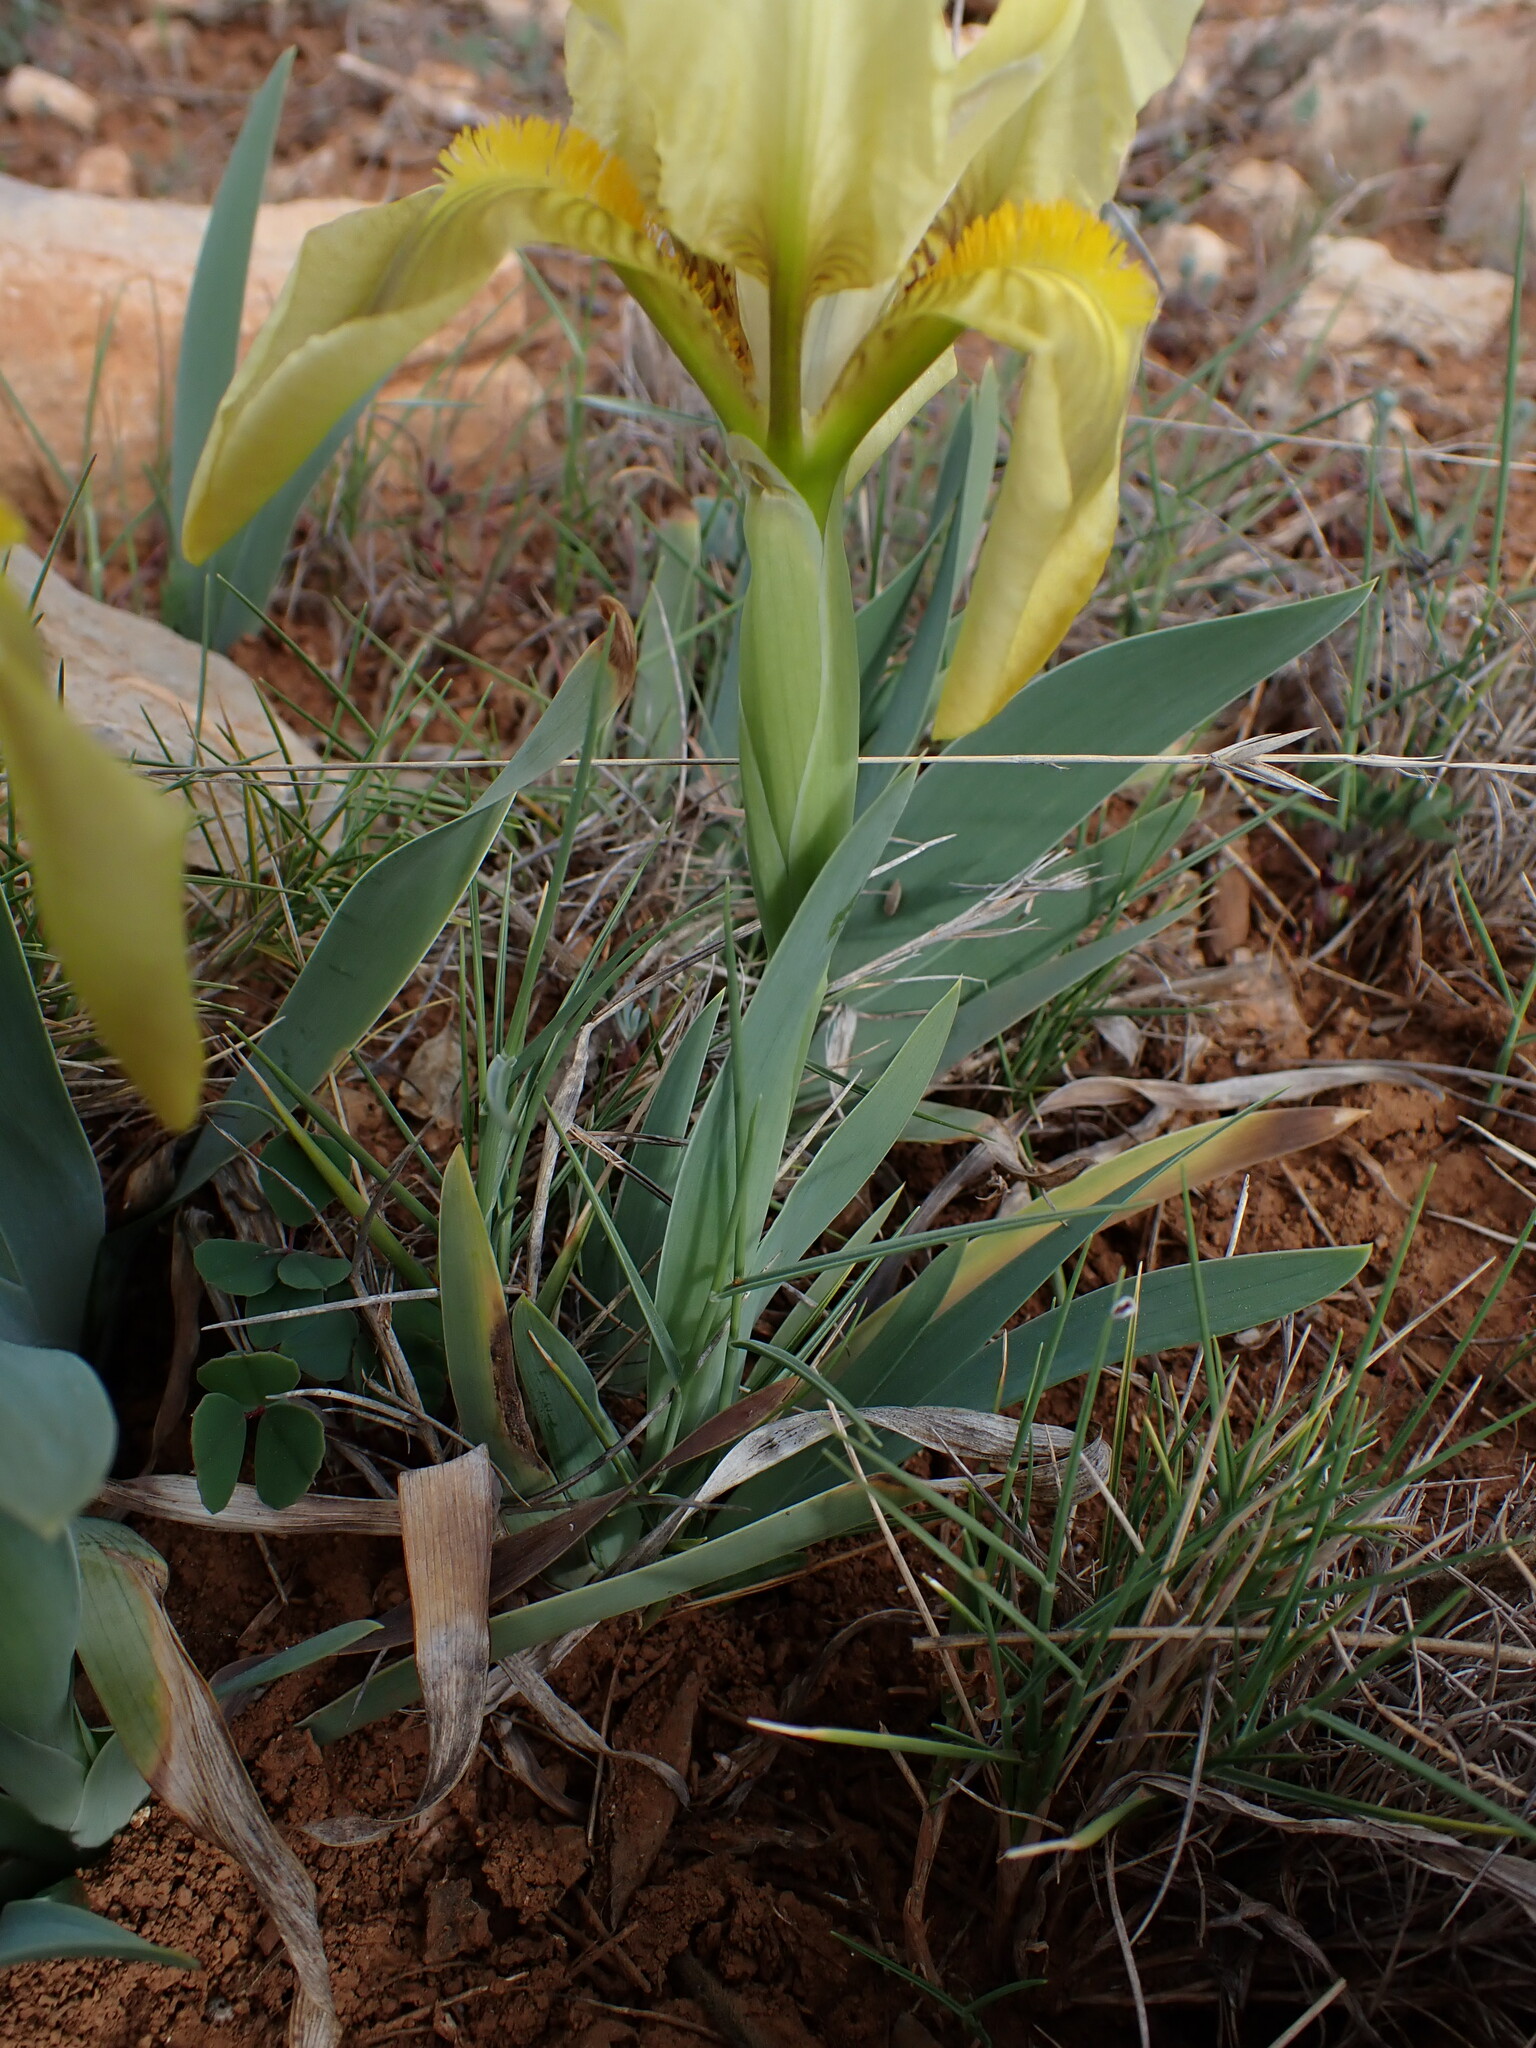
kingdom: Plantae
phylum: Tracheophyta
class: Liliopsida
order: Asparagales
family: Iridaceae
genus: Iris
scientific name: Iris lutescens
